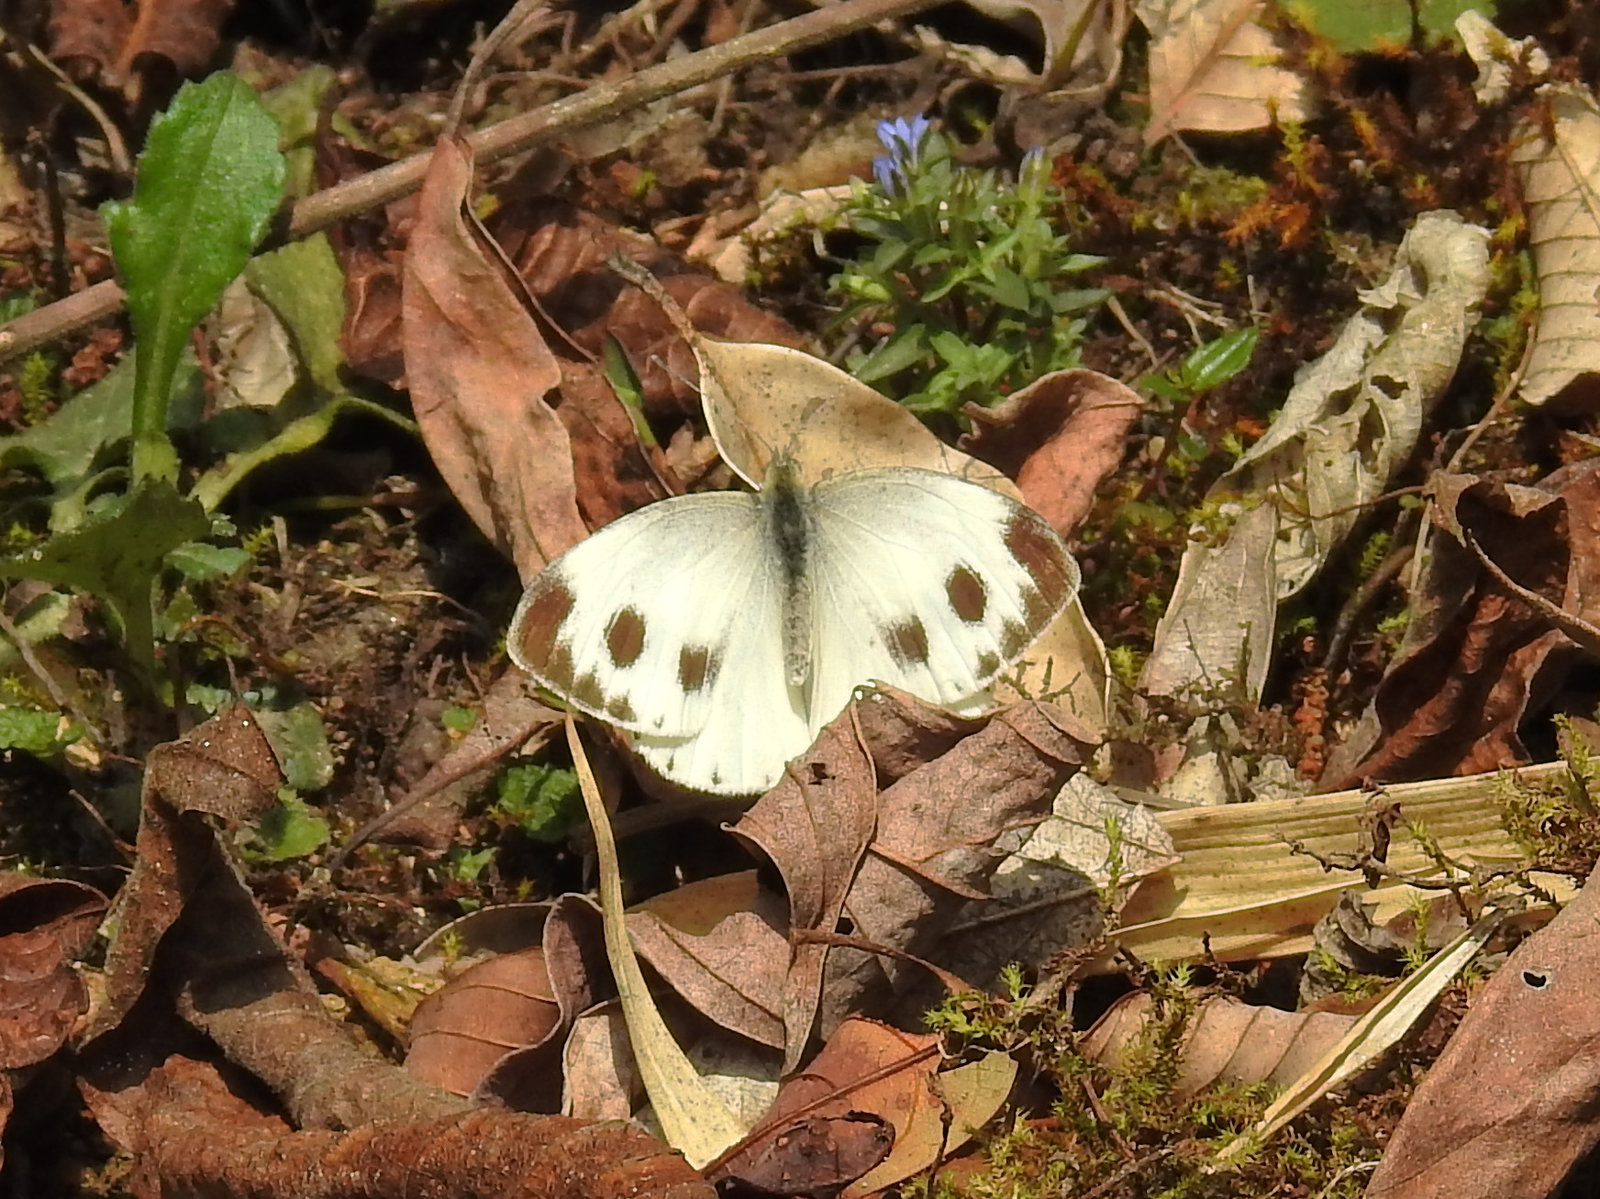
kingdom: Animalia
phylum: Arthropoda
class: Insecta
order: Lepidoptera
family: Pieridae
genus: Pieris
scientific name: Pieris canidia
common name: Indian cabbage white
